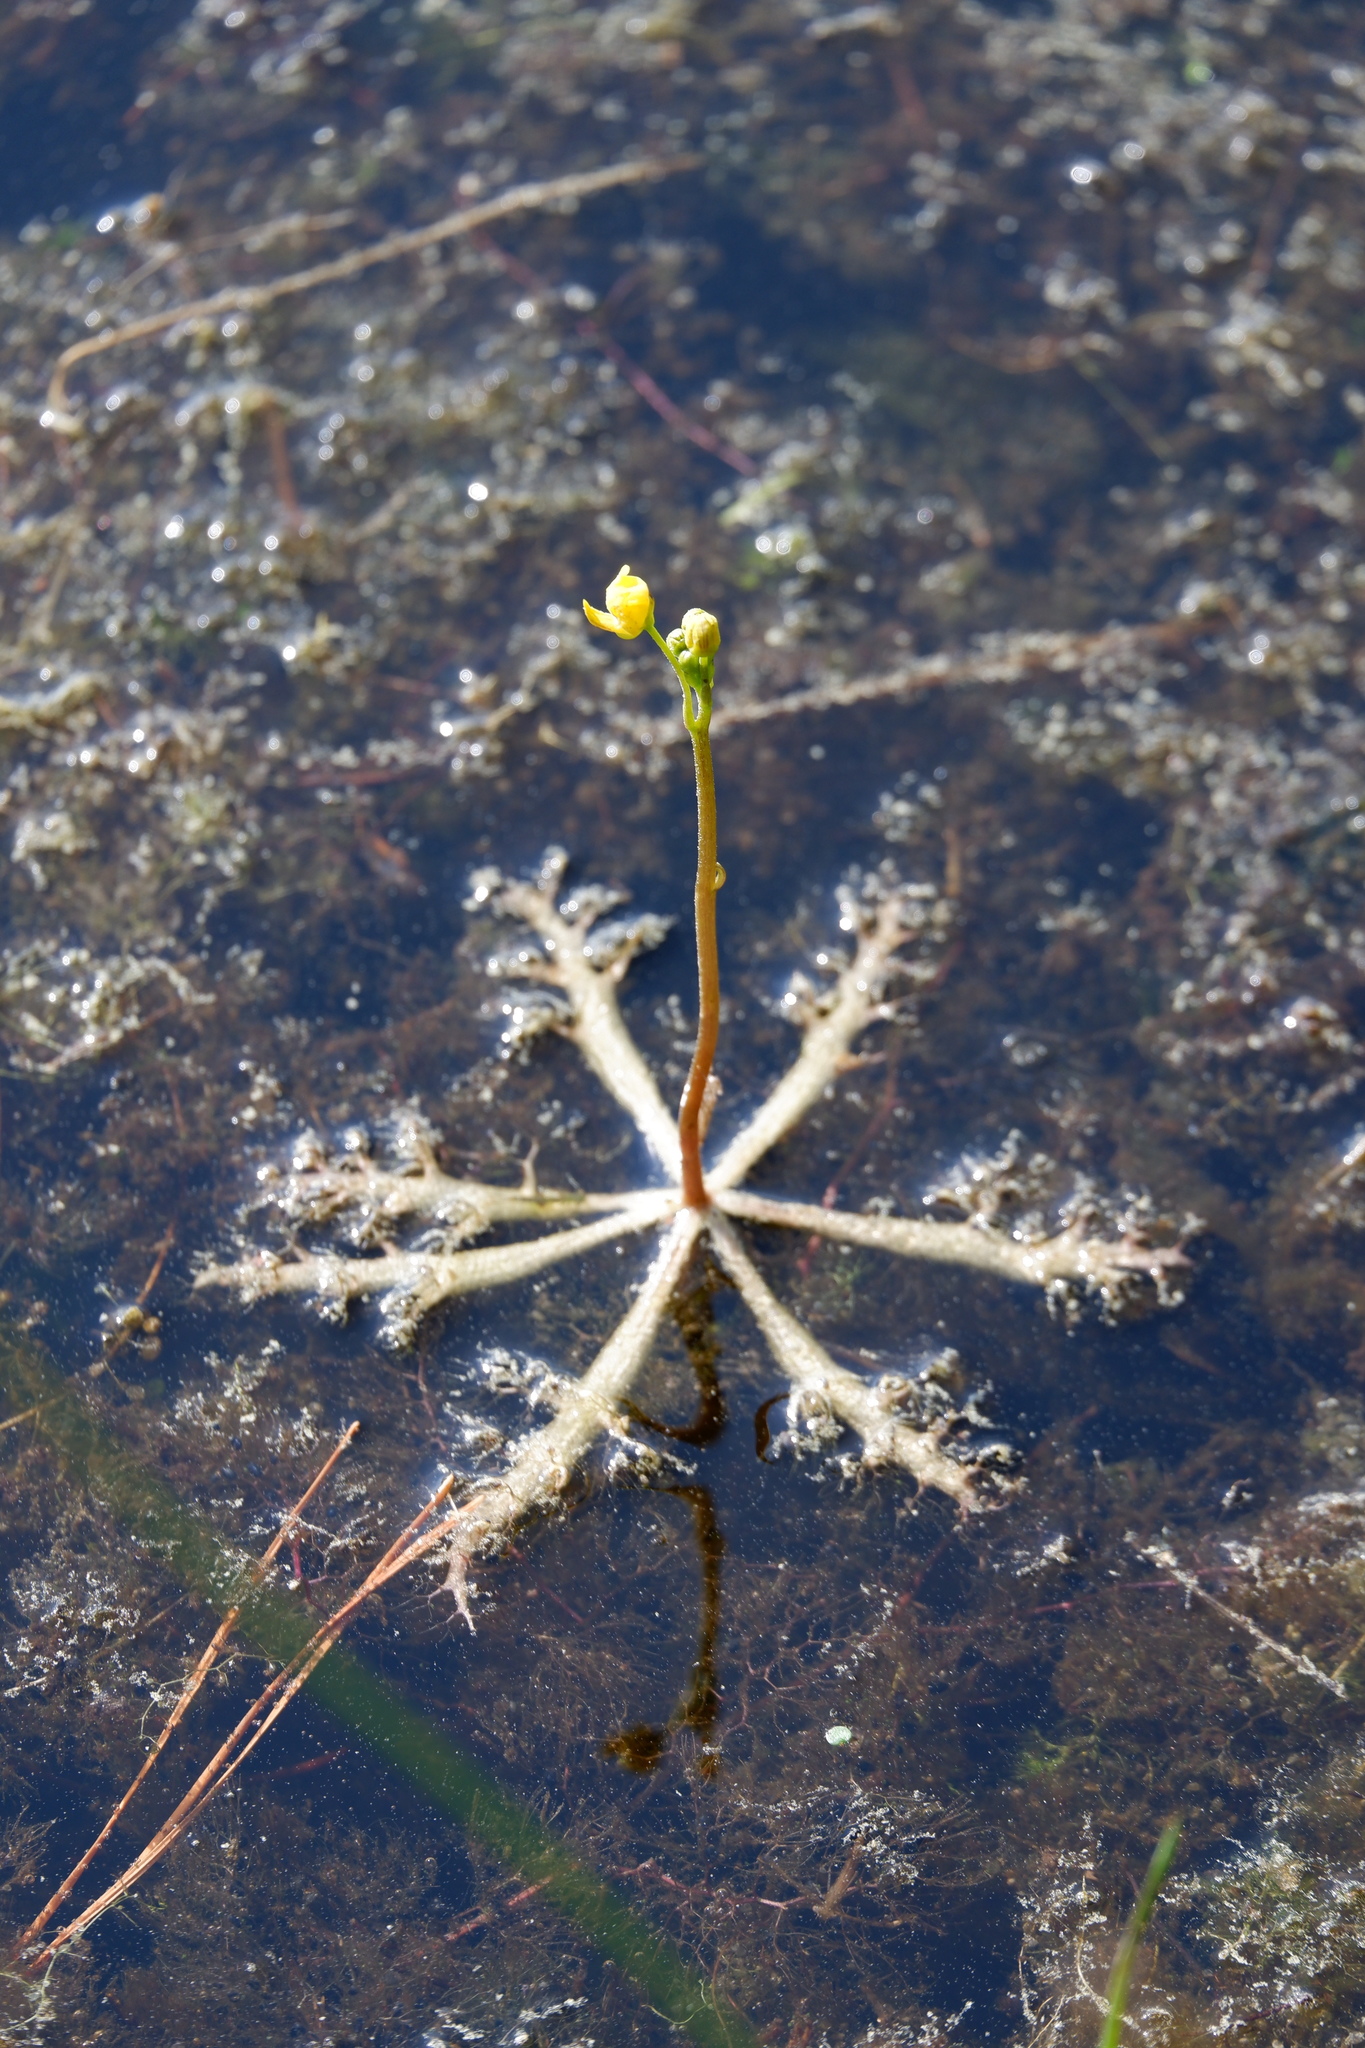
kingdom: Plantae
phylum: Tracheophyta
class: Magnoliopsida
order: Lamiales
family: Lentibulariaceae
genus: Utricularia
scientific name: Utricularia radiata
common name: Floating bladderwort
